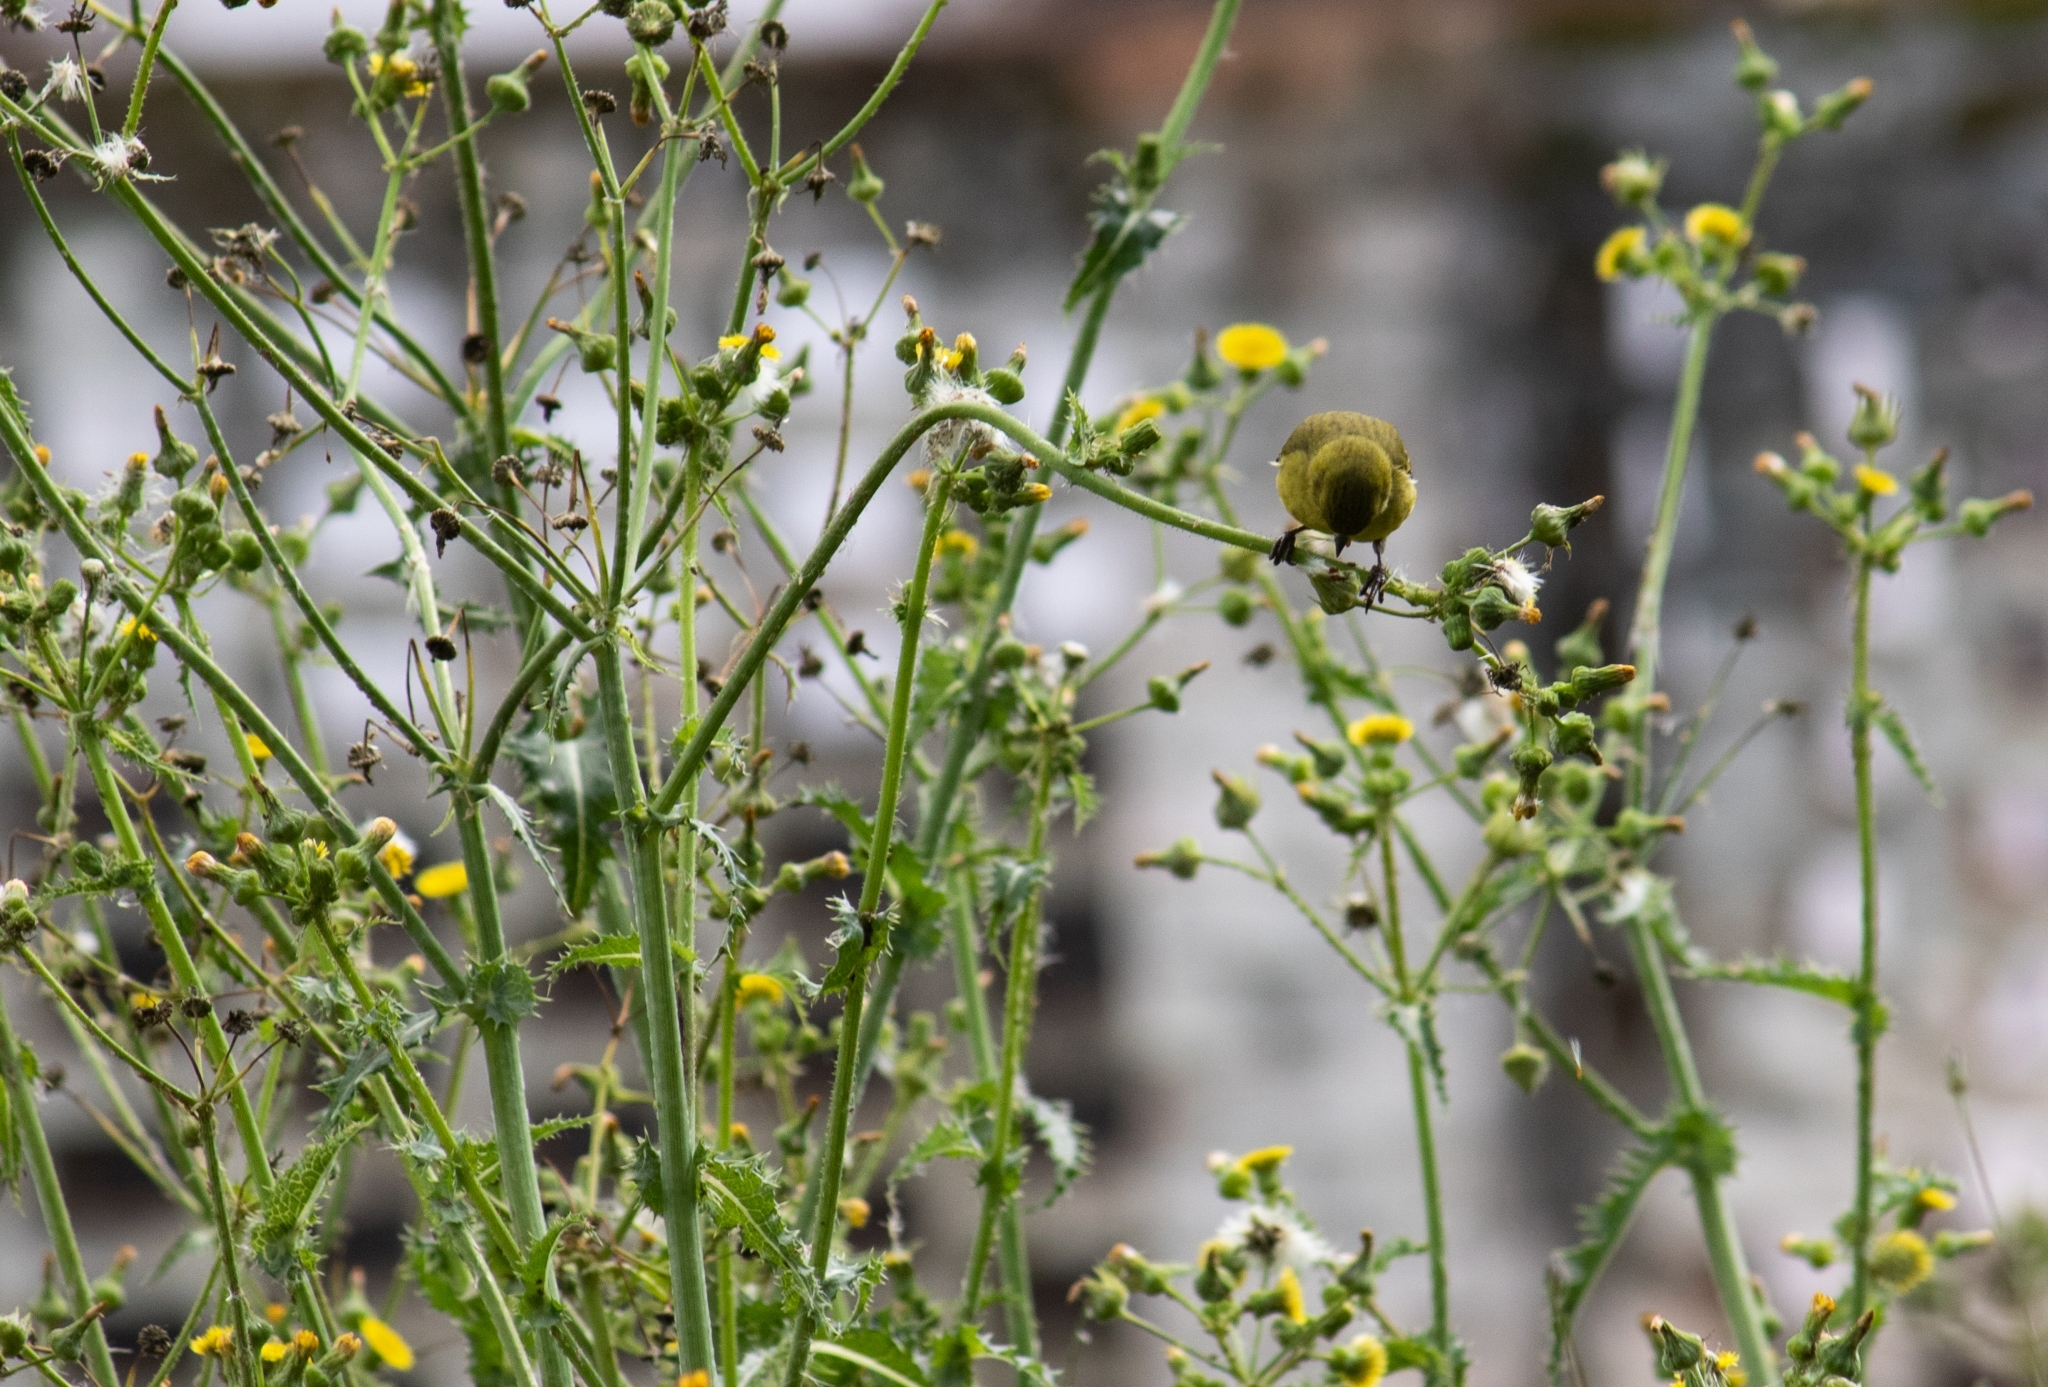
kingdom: Animalia
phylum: Chordata
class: Aves
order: Passeriformes
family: Fringillidae
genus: Spinus
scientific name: Spinus magellanicus
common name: Hooded siskin
